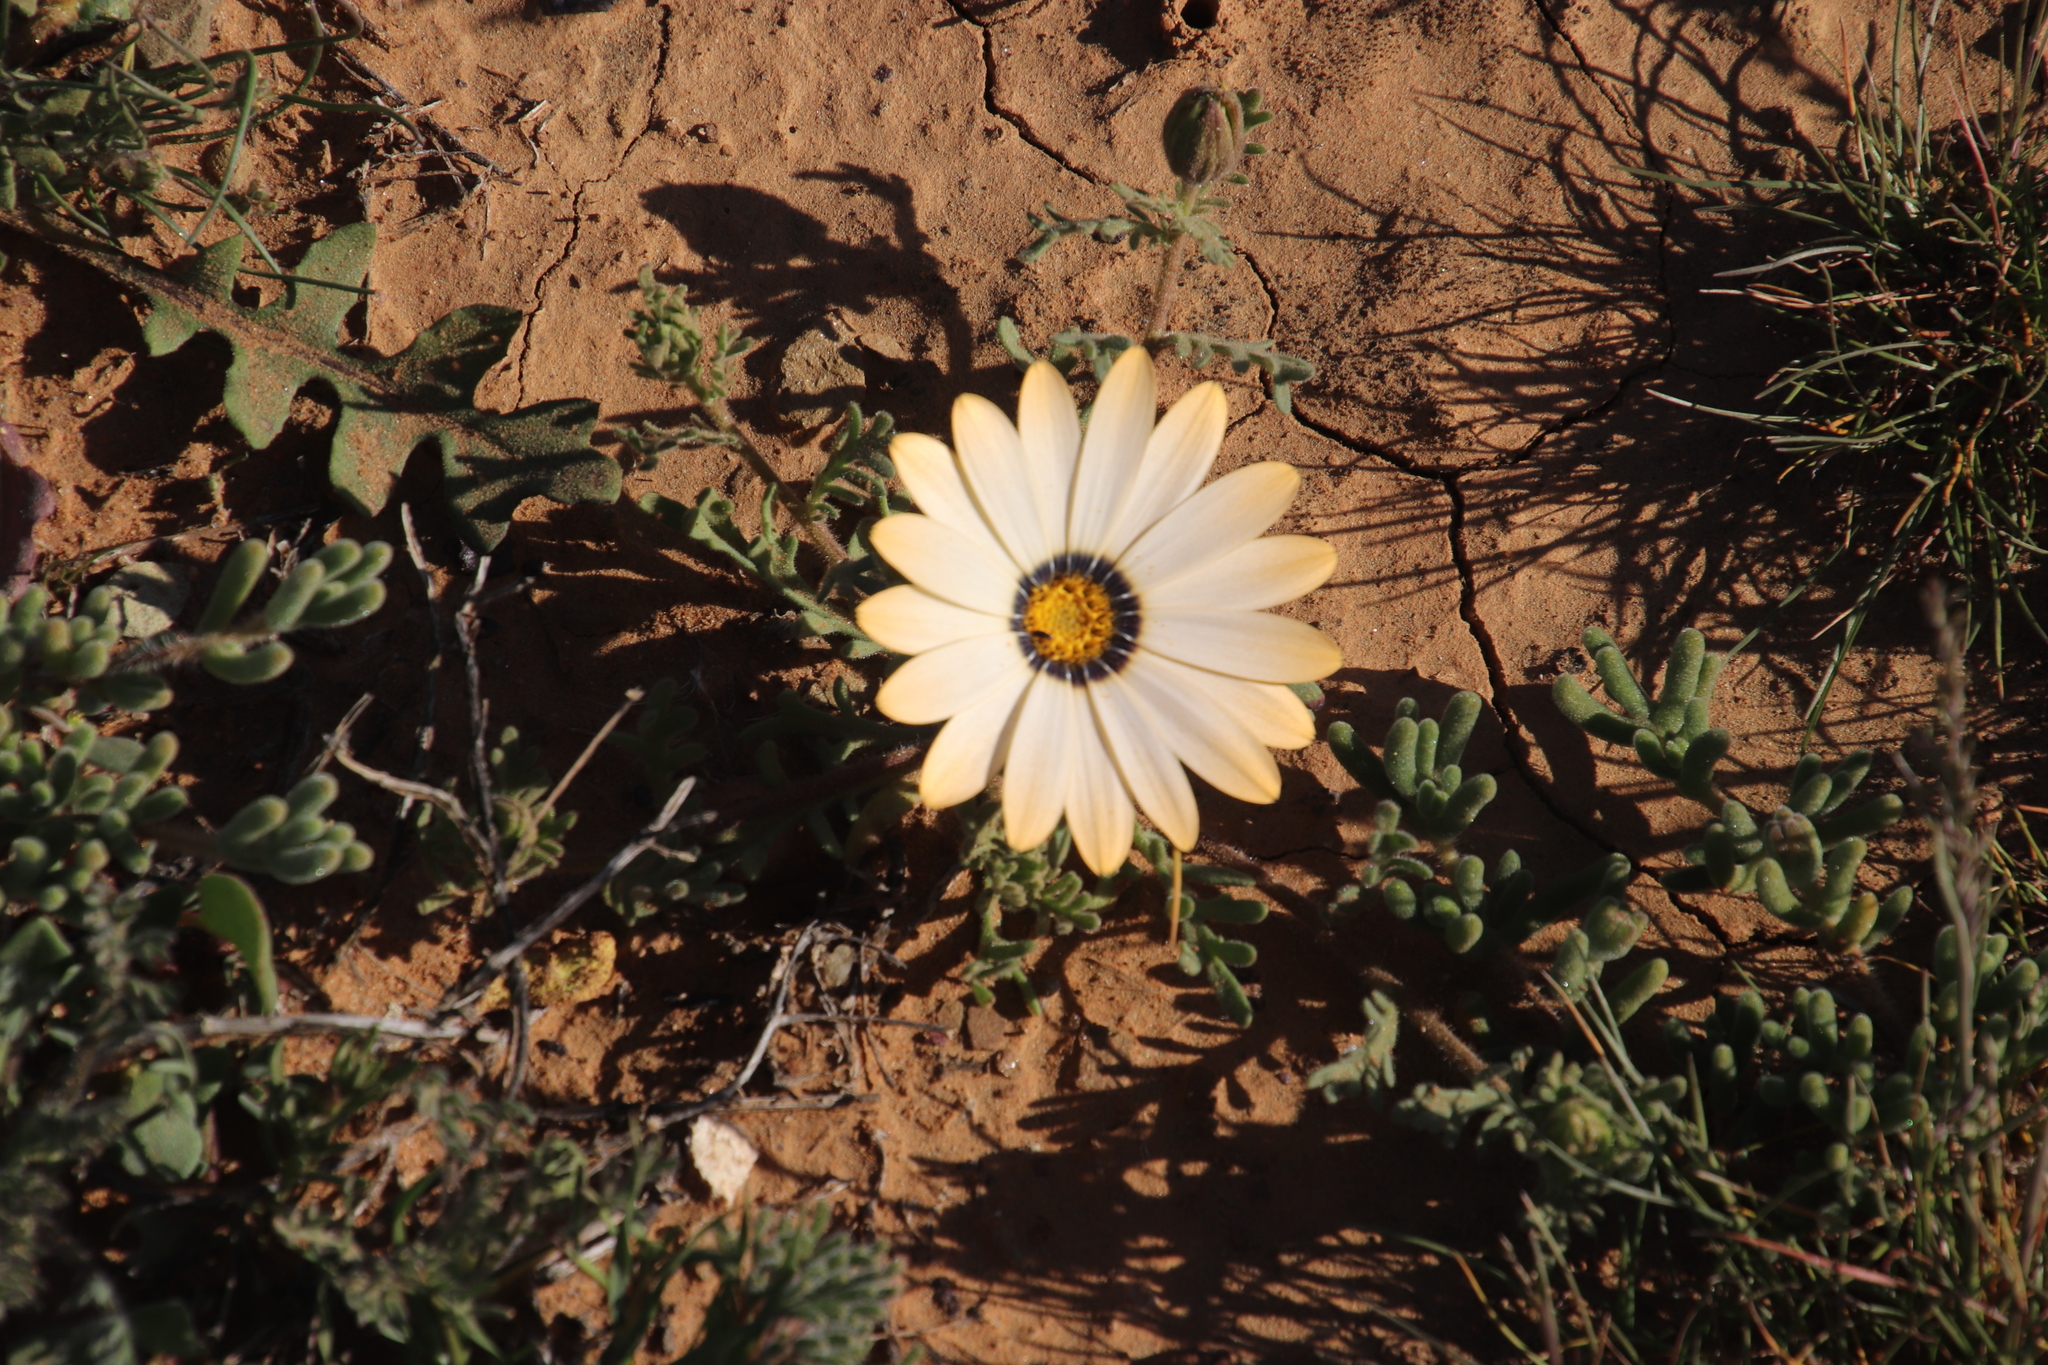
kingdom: Plantae
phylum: Tracheophyta
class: Magnoliopsida
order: Asterales
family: Asteraceae
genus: Dimorphotheca
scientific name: Dimorphotheca pinnata
